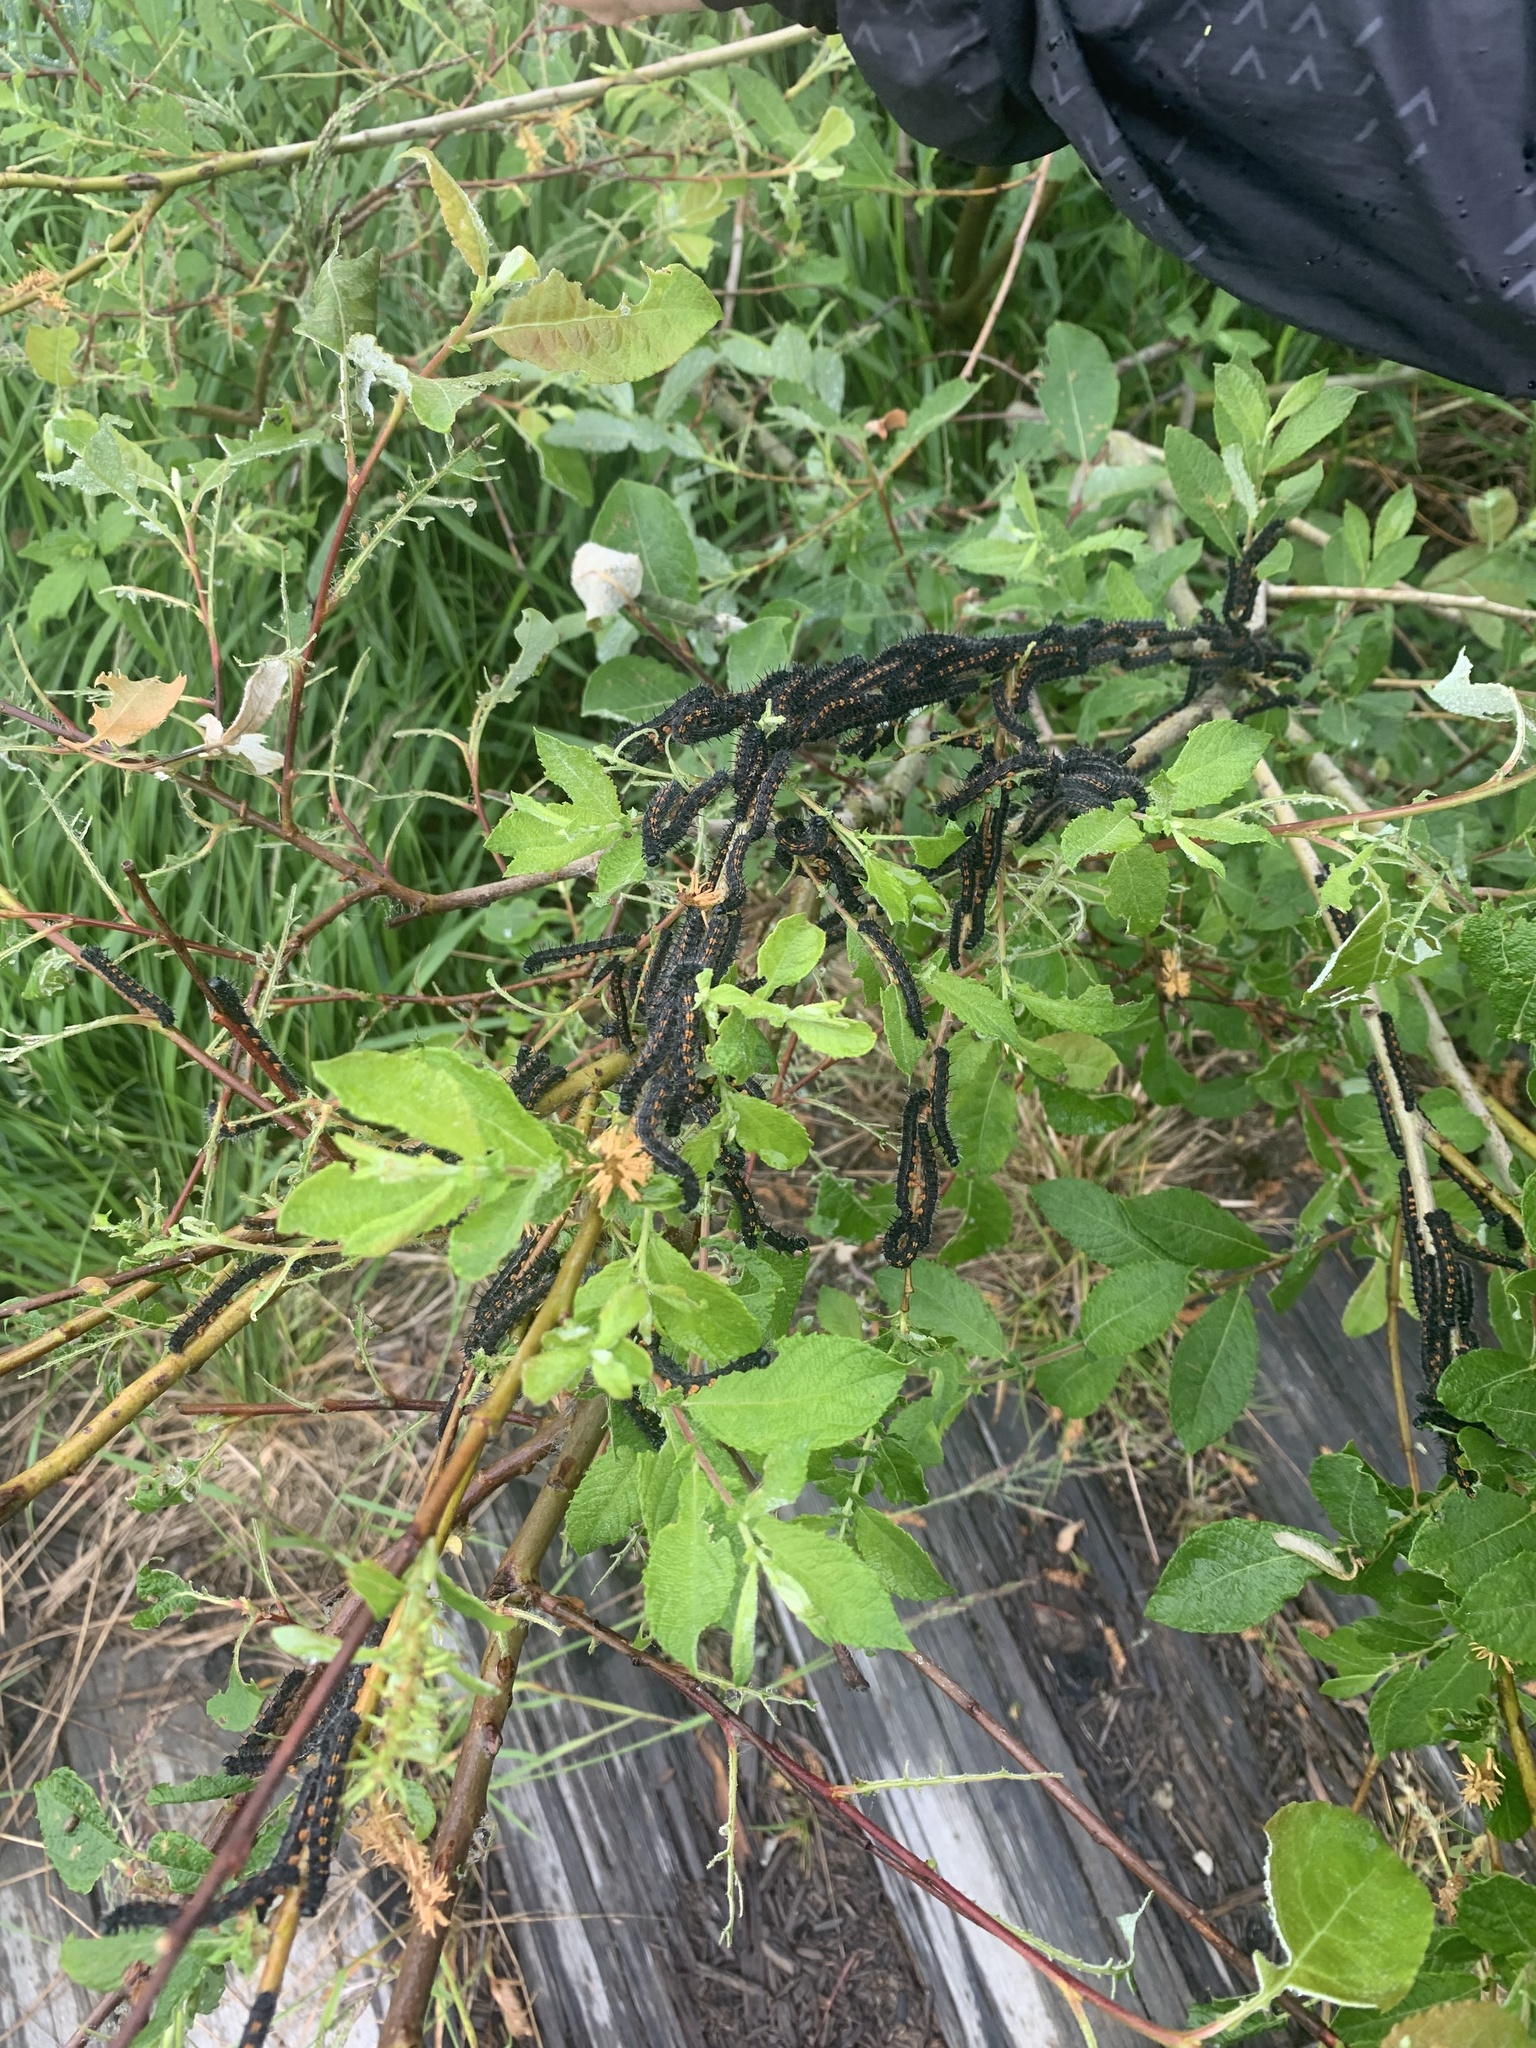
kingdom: Animalia
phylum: Arthropoda
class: Insecta
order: Lepidoptera
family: Nymphalidae
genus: Nymphalis
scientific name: Nymphalis antiopa
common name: Camberwell beauty
